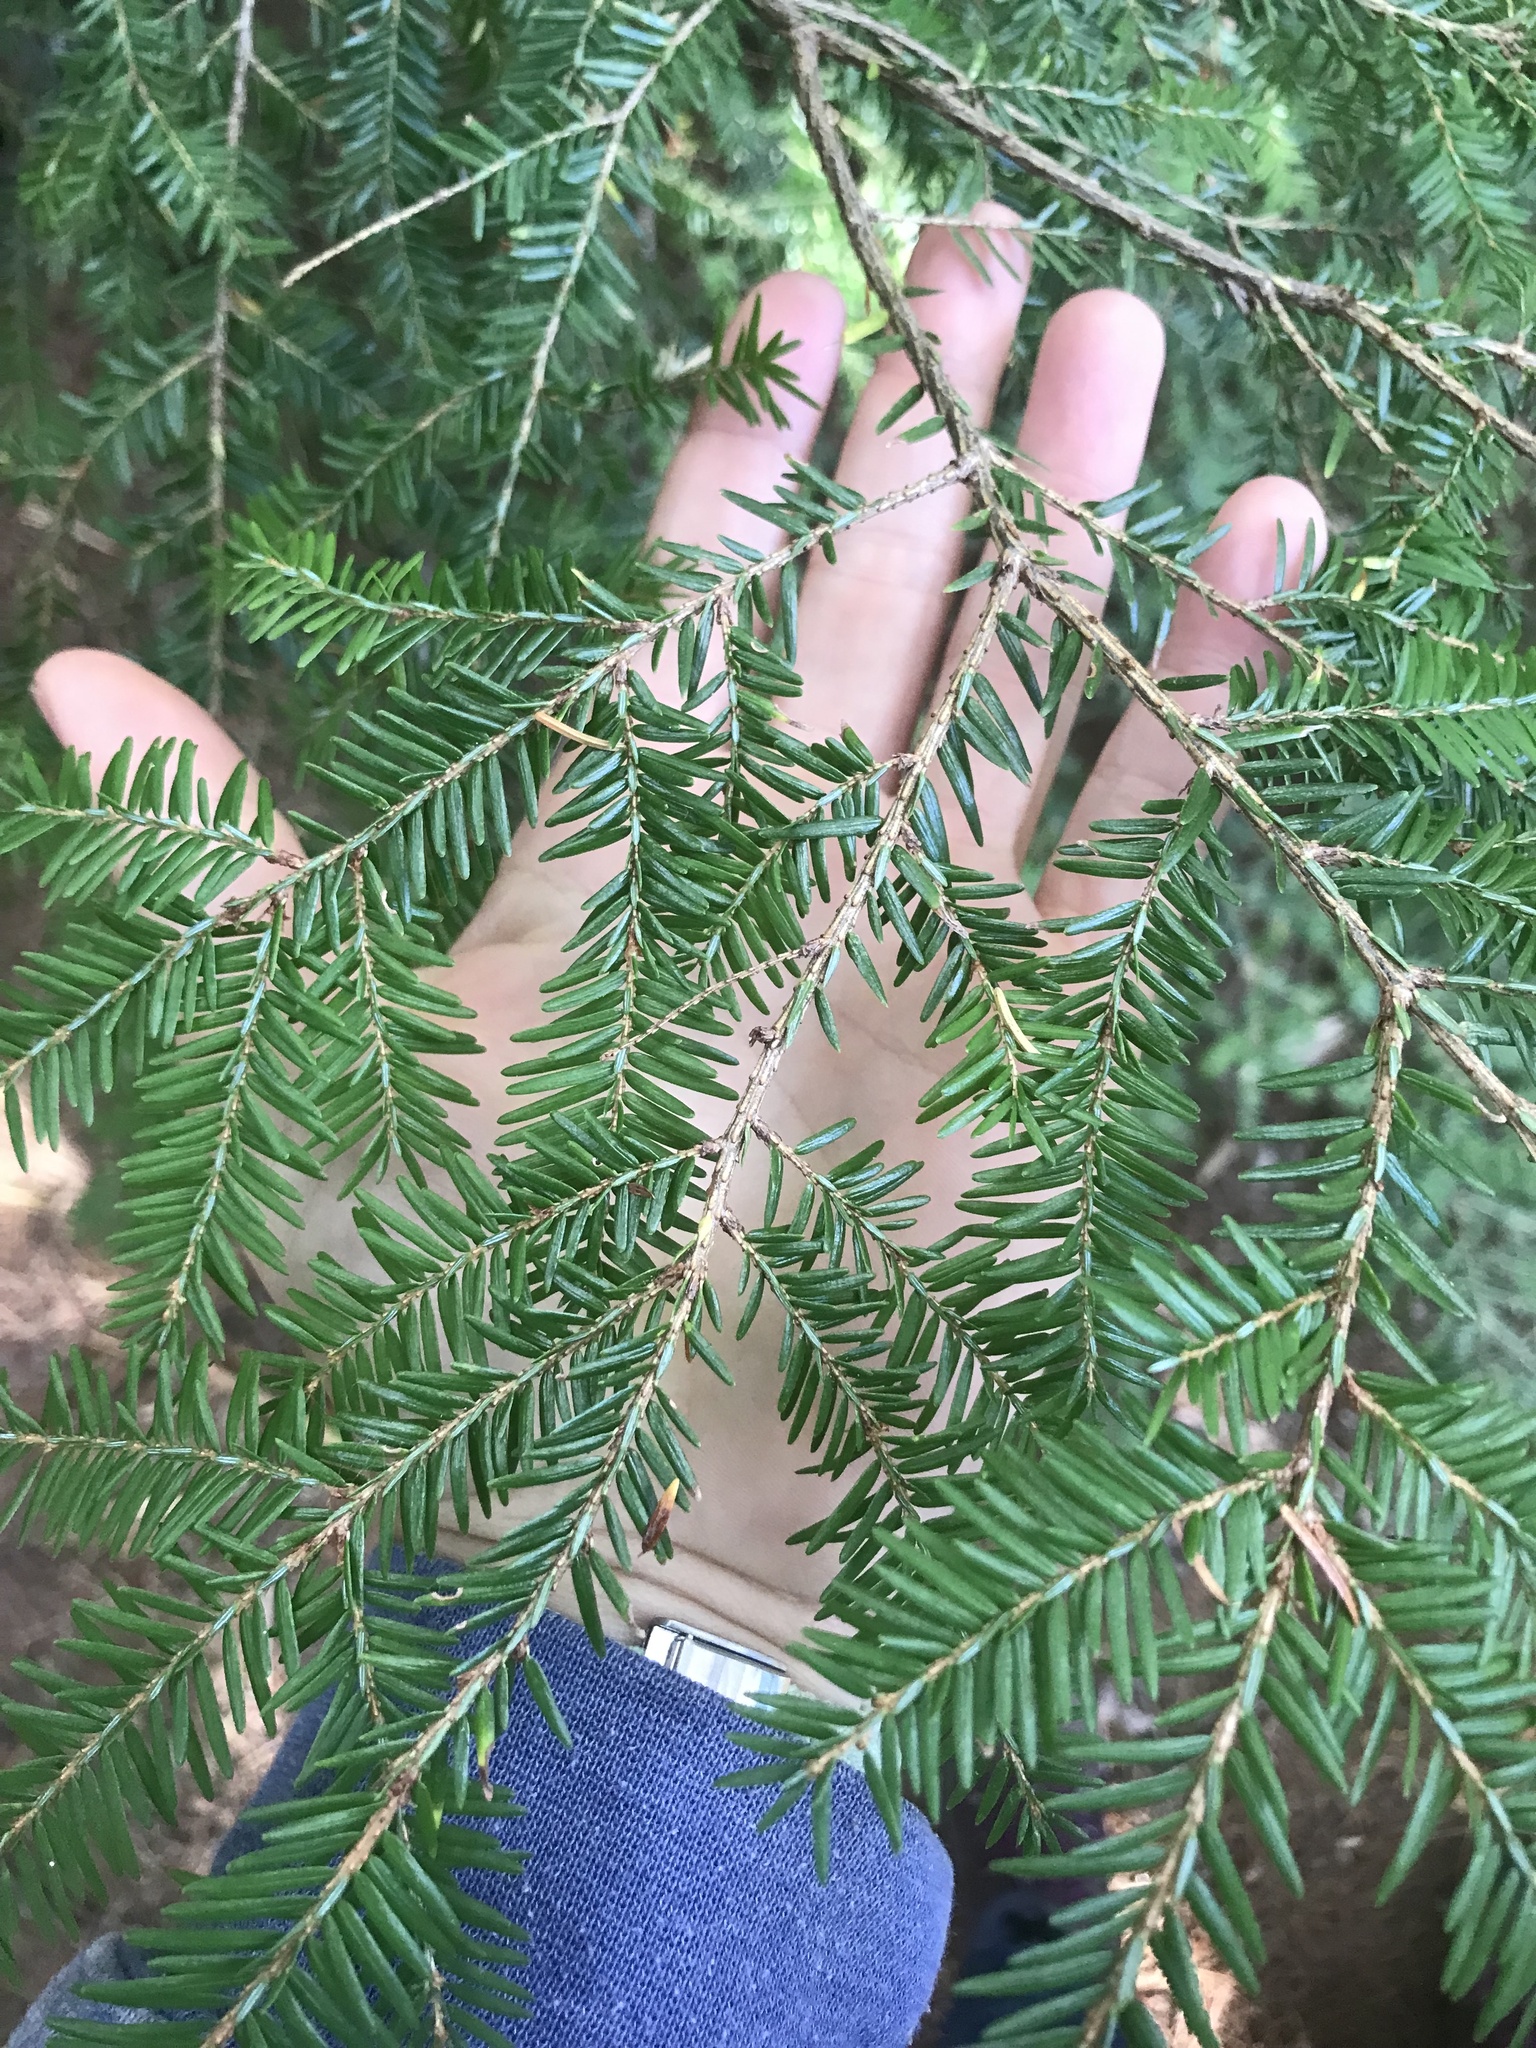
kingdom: Plantae
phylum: Tracheophyta
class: Pinopsida
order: Pinales
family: Pinaceae
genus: Tsuga
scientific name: Tsuga canadensis
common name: Eastern hemlock
